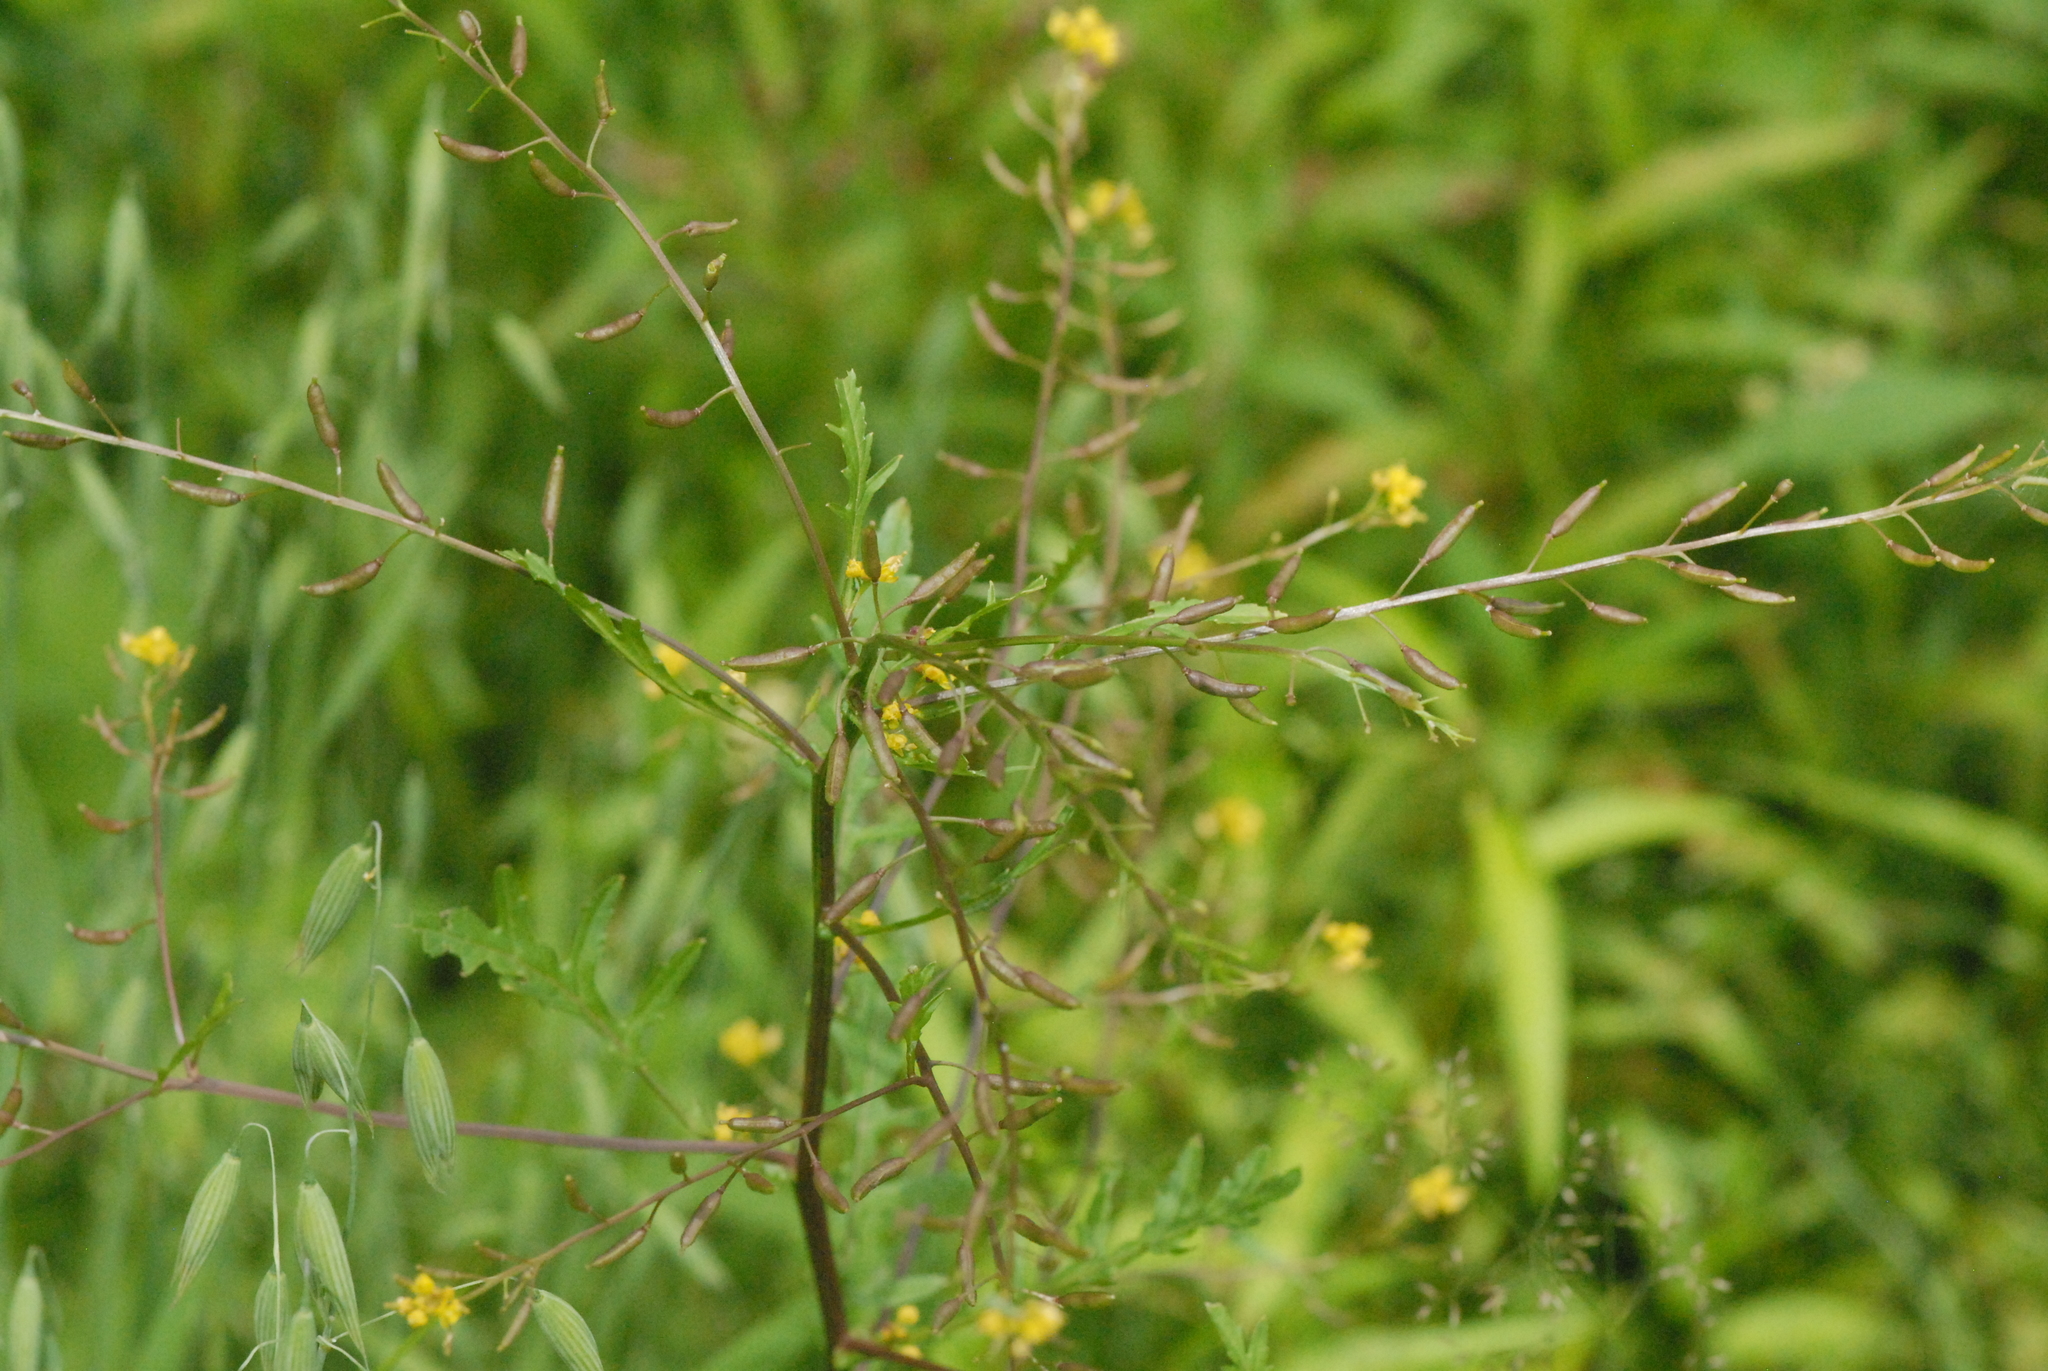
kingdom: Plantae
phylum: Tracheophyta
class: Magnoliopsida
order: Brassicales
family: Brassicaceae
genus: Rorippa
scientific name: Rorippa palustris
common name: Marsh yellow-cress
